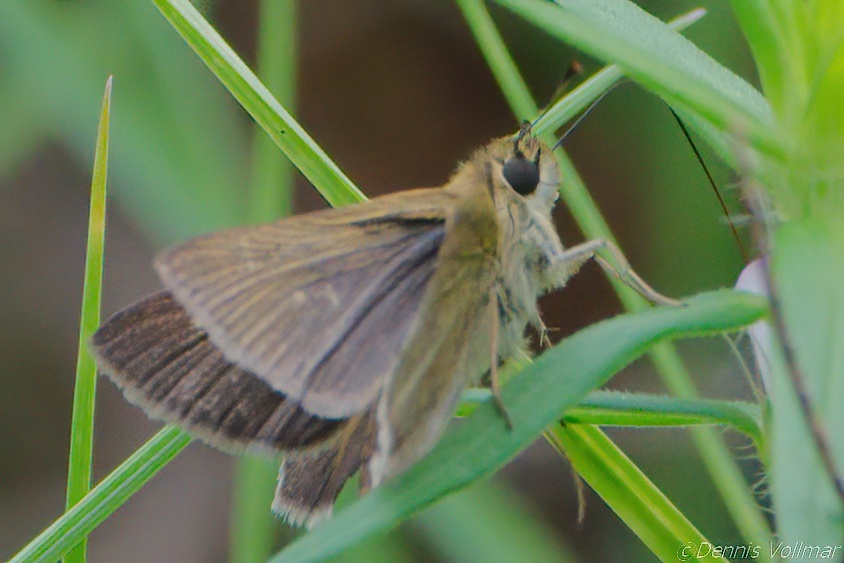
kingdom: Animalia
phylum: Arthropoda
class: Insecta
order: Lepidoptera
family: Hesperiidae
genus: Nastra
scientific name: Nastra
